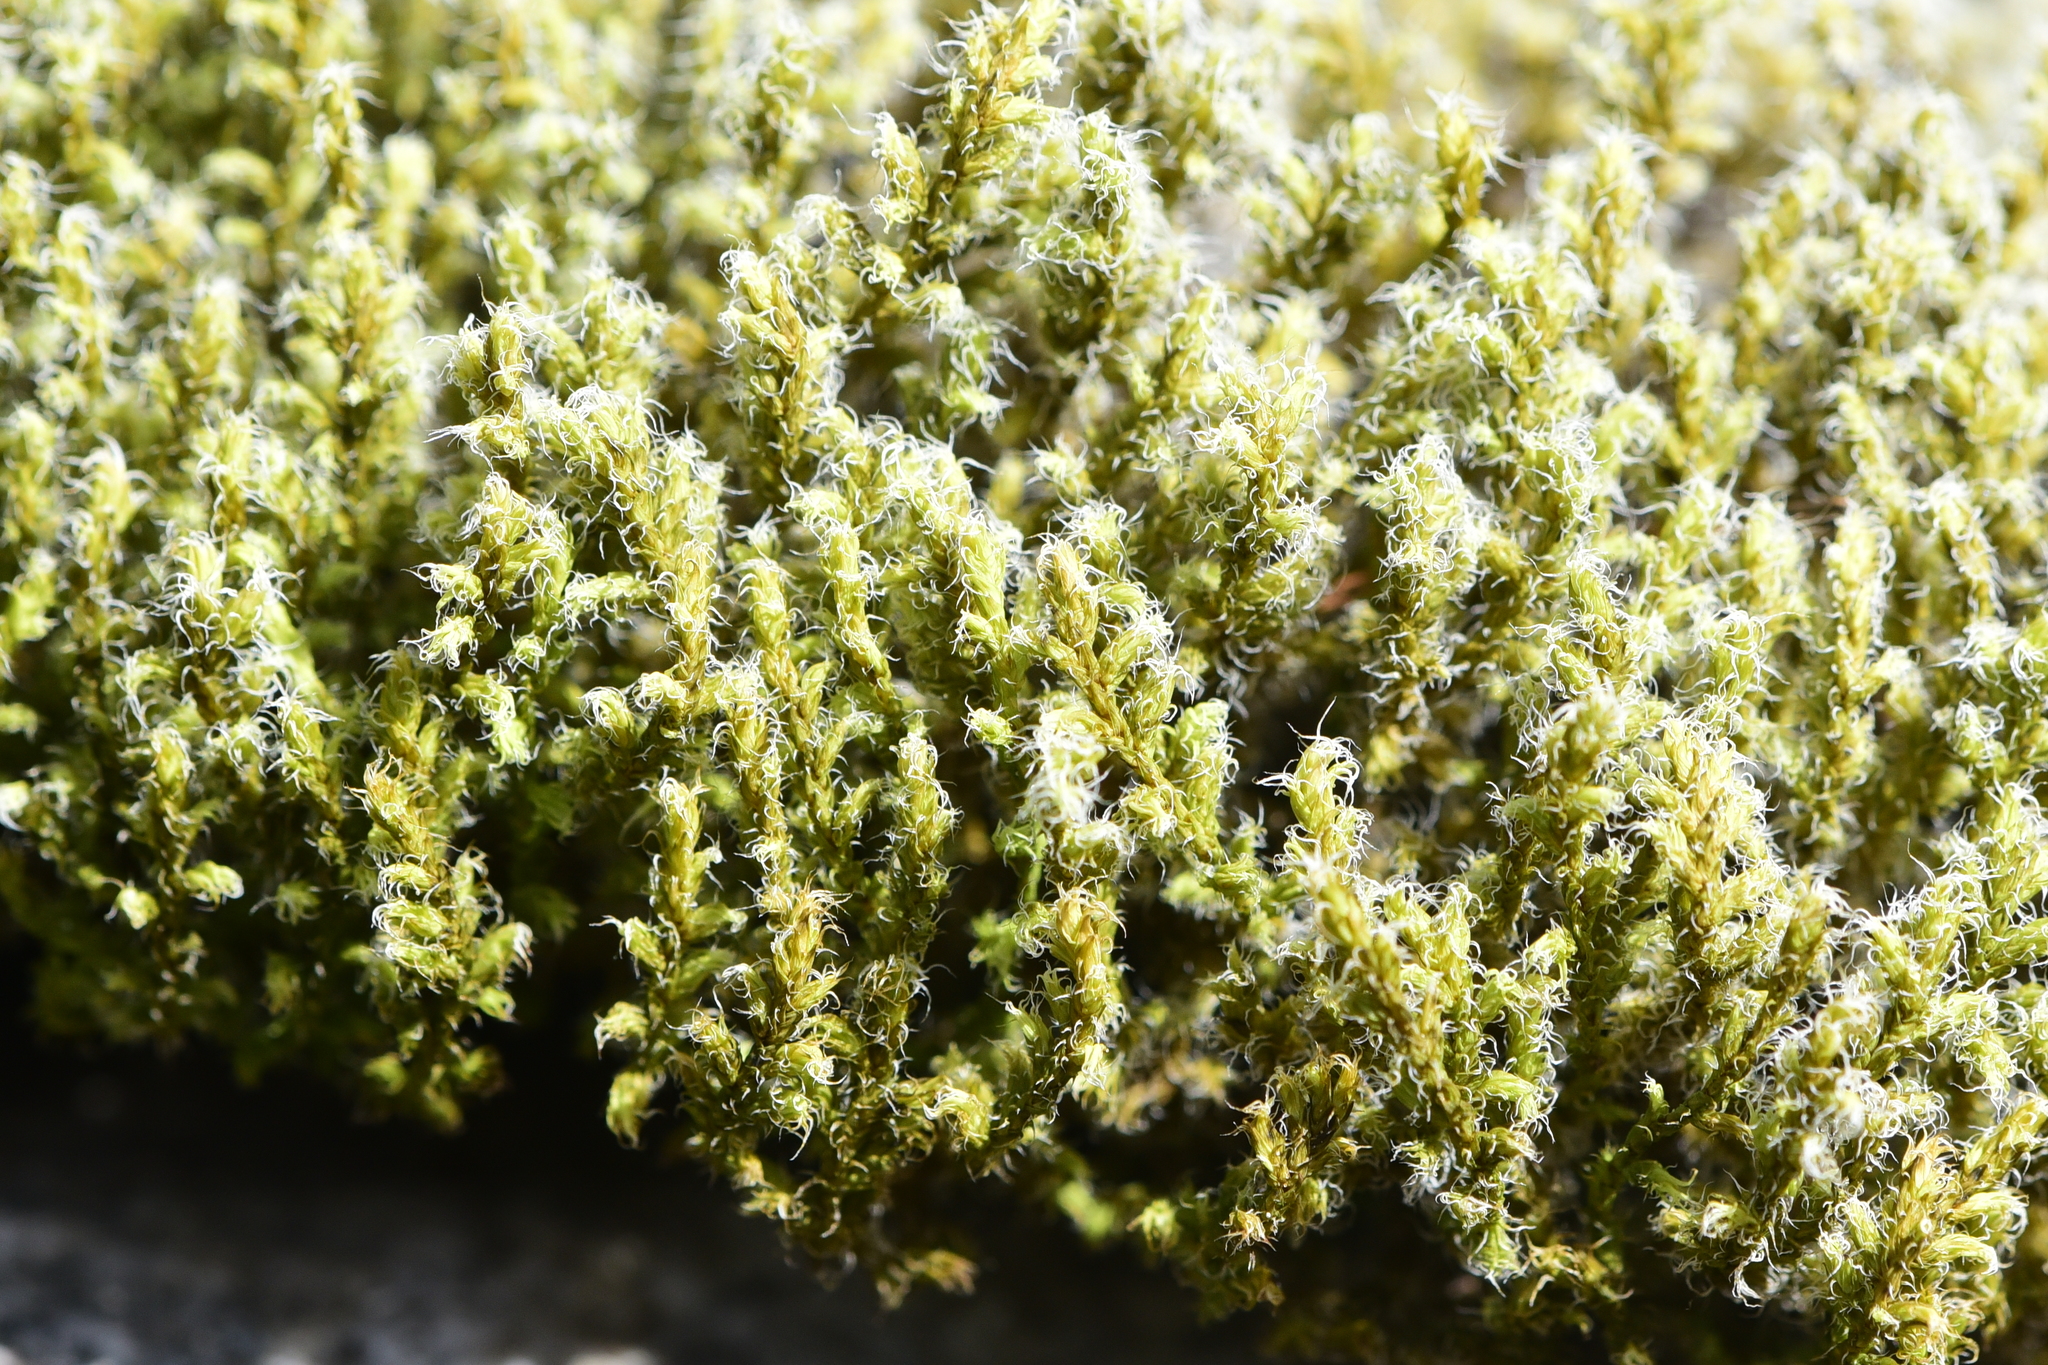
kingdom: Plantae
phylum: Bryophyta
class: Bryopsida
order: Grimmiales
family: Grimmiaceae
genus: Niphotrichum
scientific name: Niphotrichum elongatum
